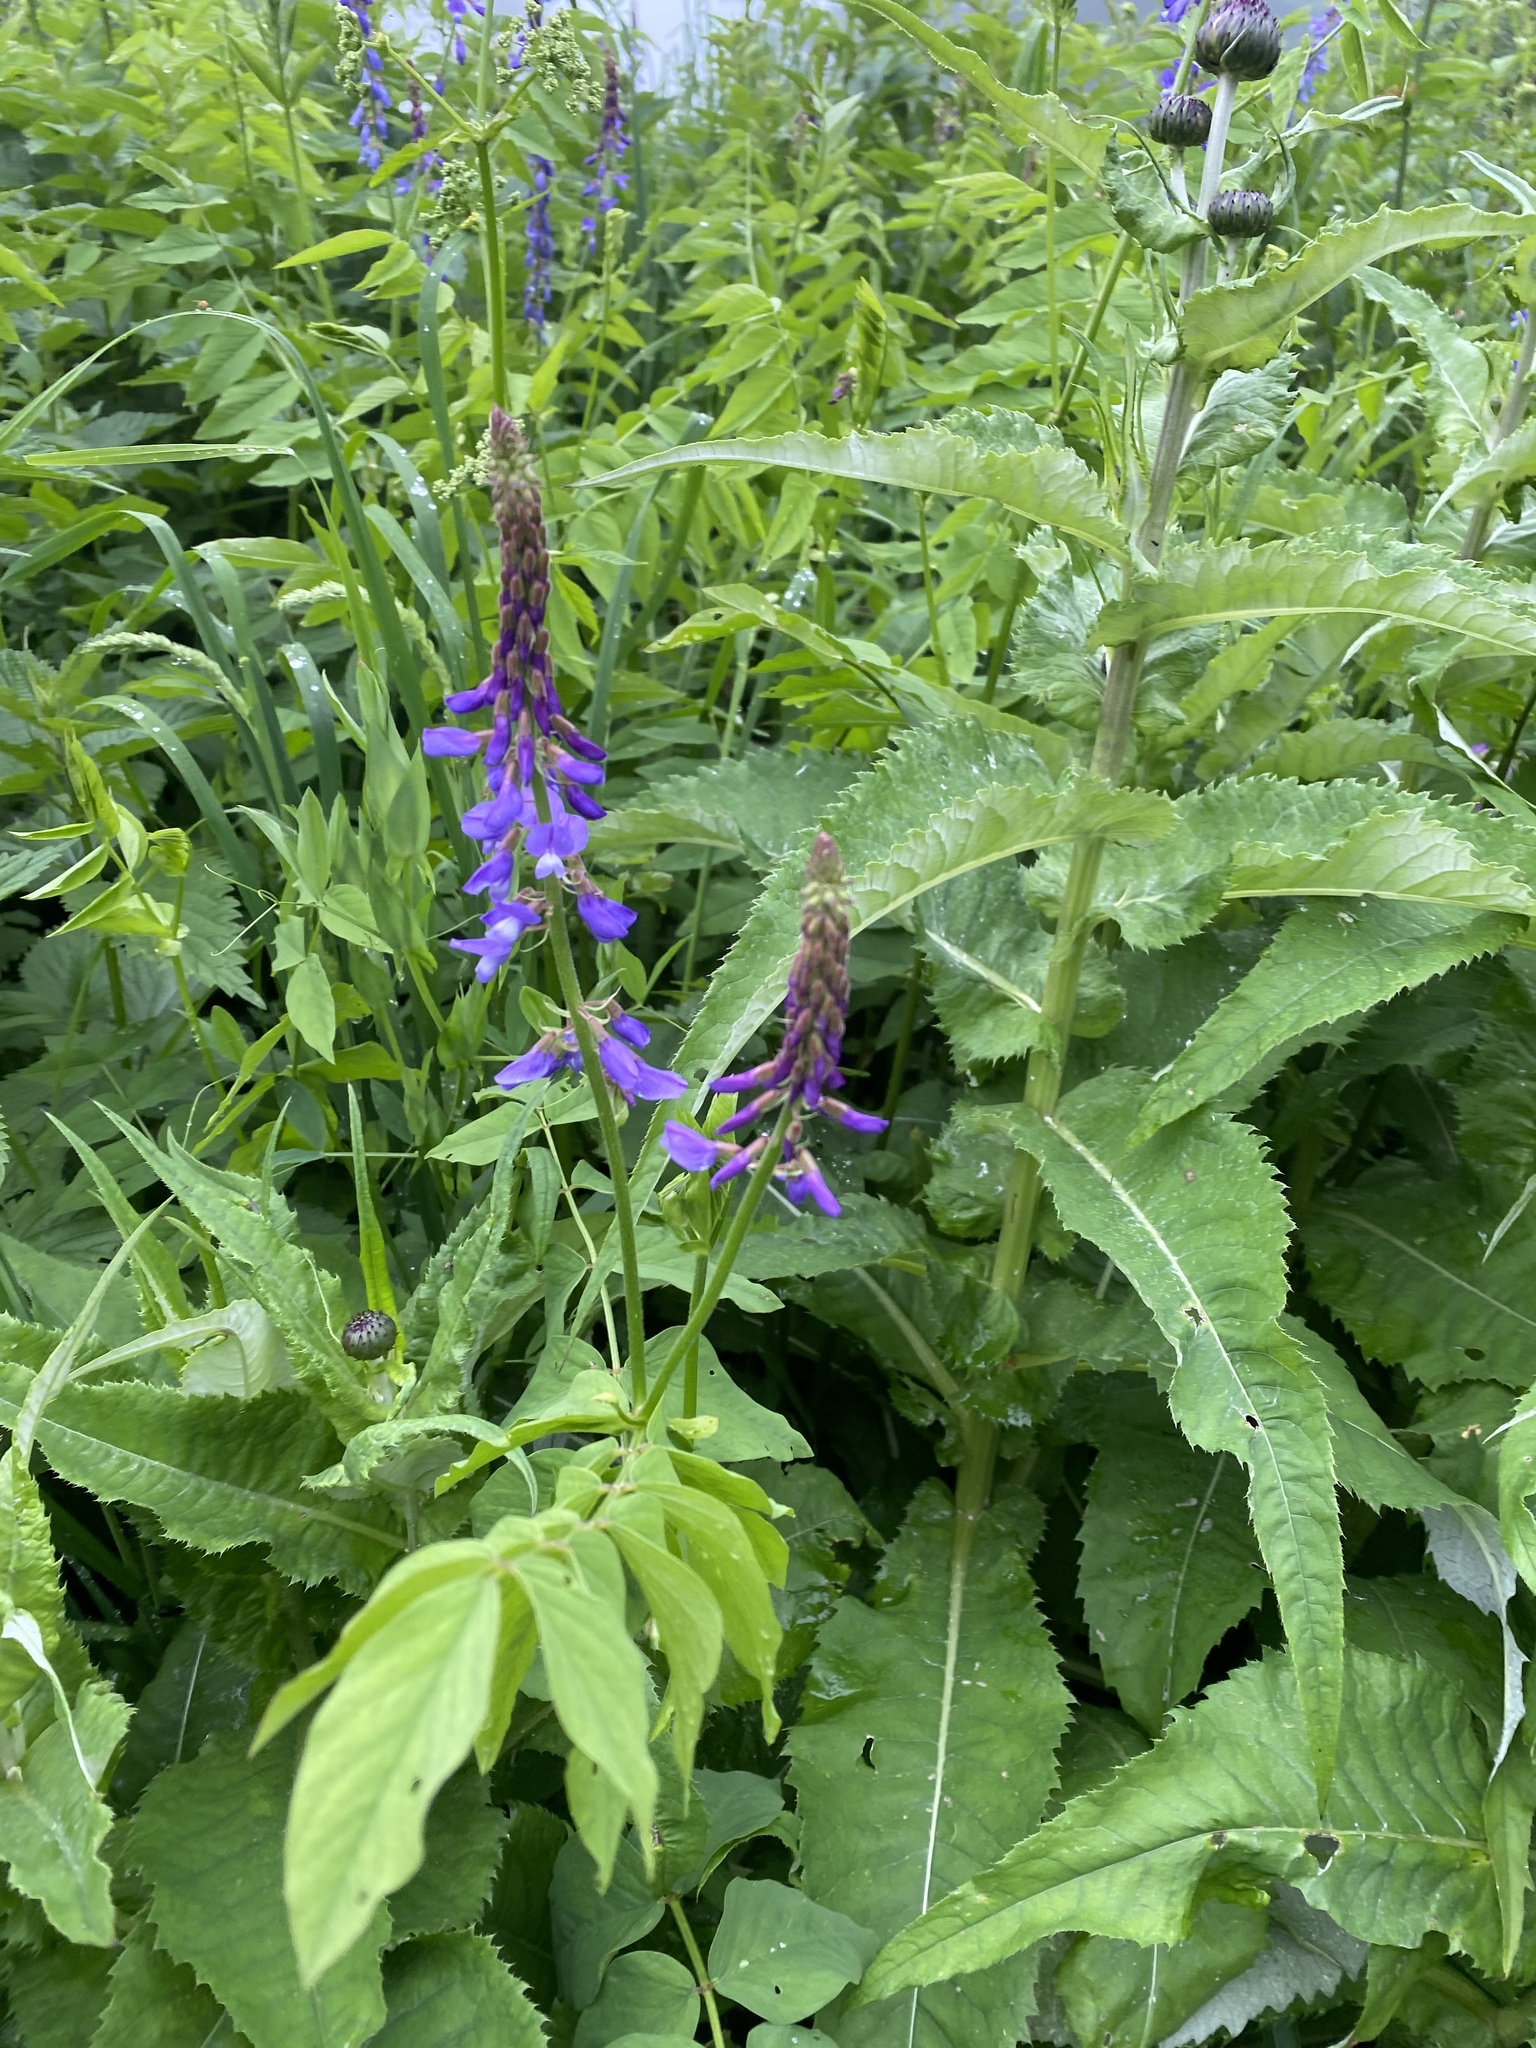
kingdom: Plantae
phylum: Tracheophyta
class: Magnoliopsida
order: Fabales
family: Fabaceae
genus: Galega
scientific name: Galega orientalis
